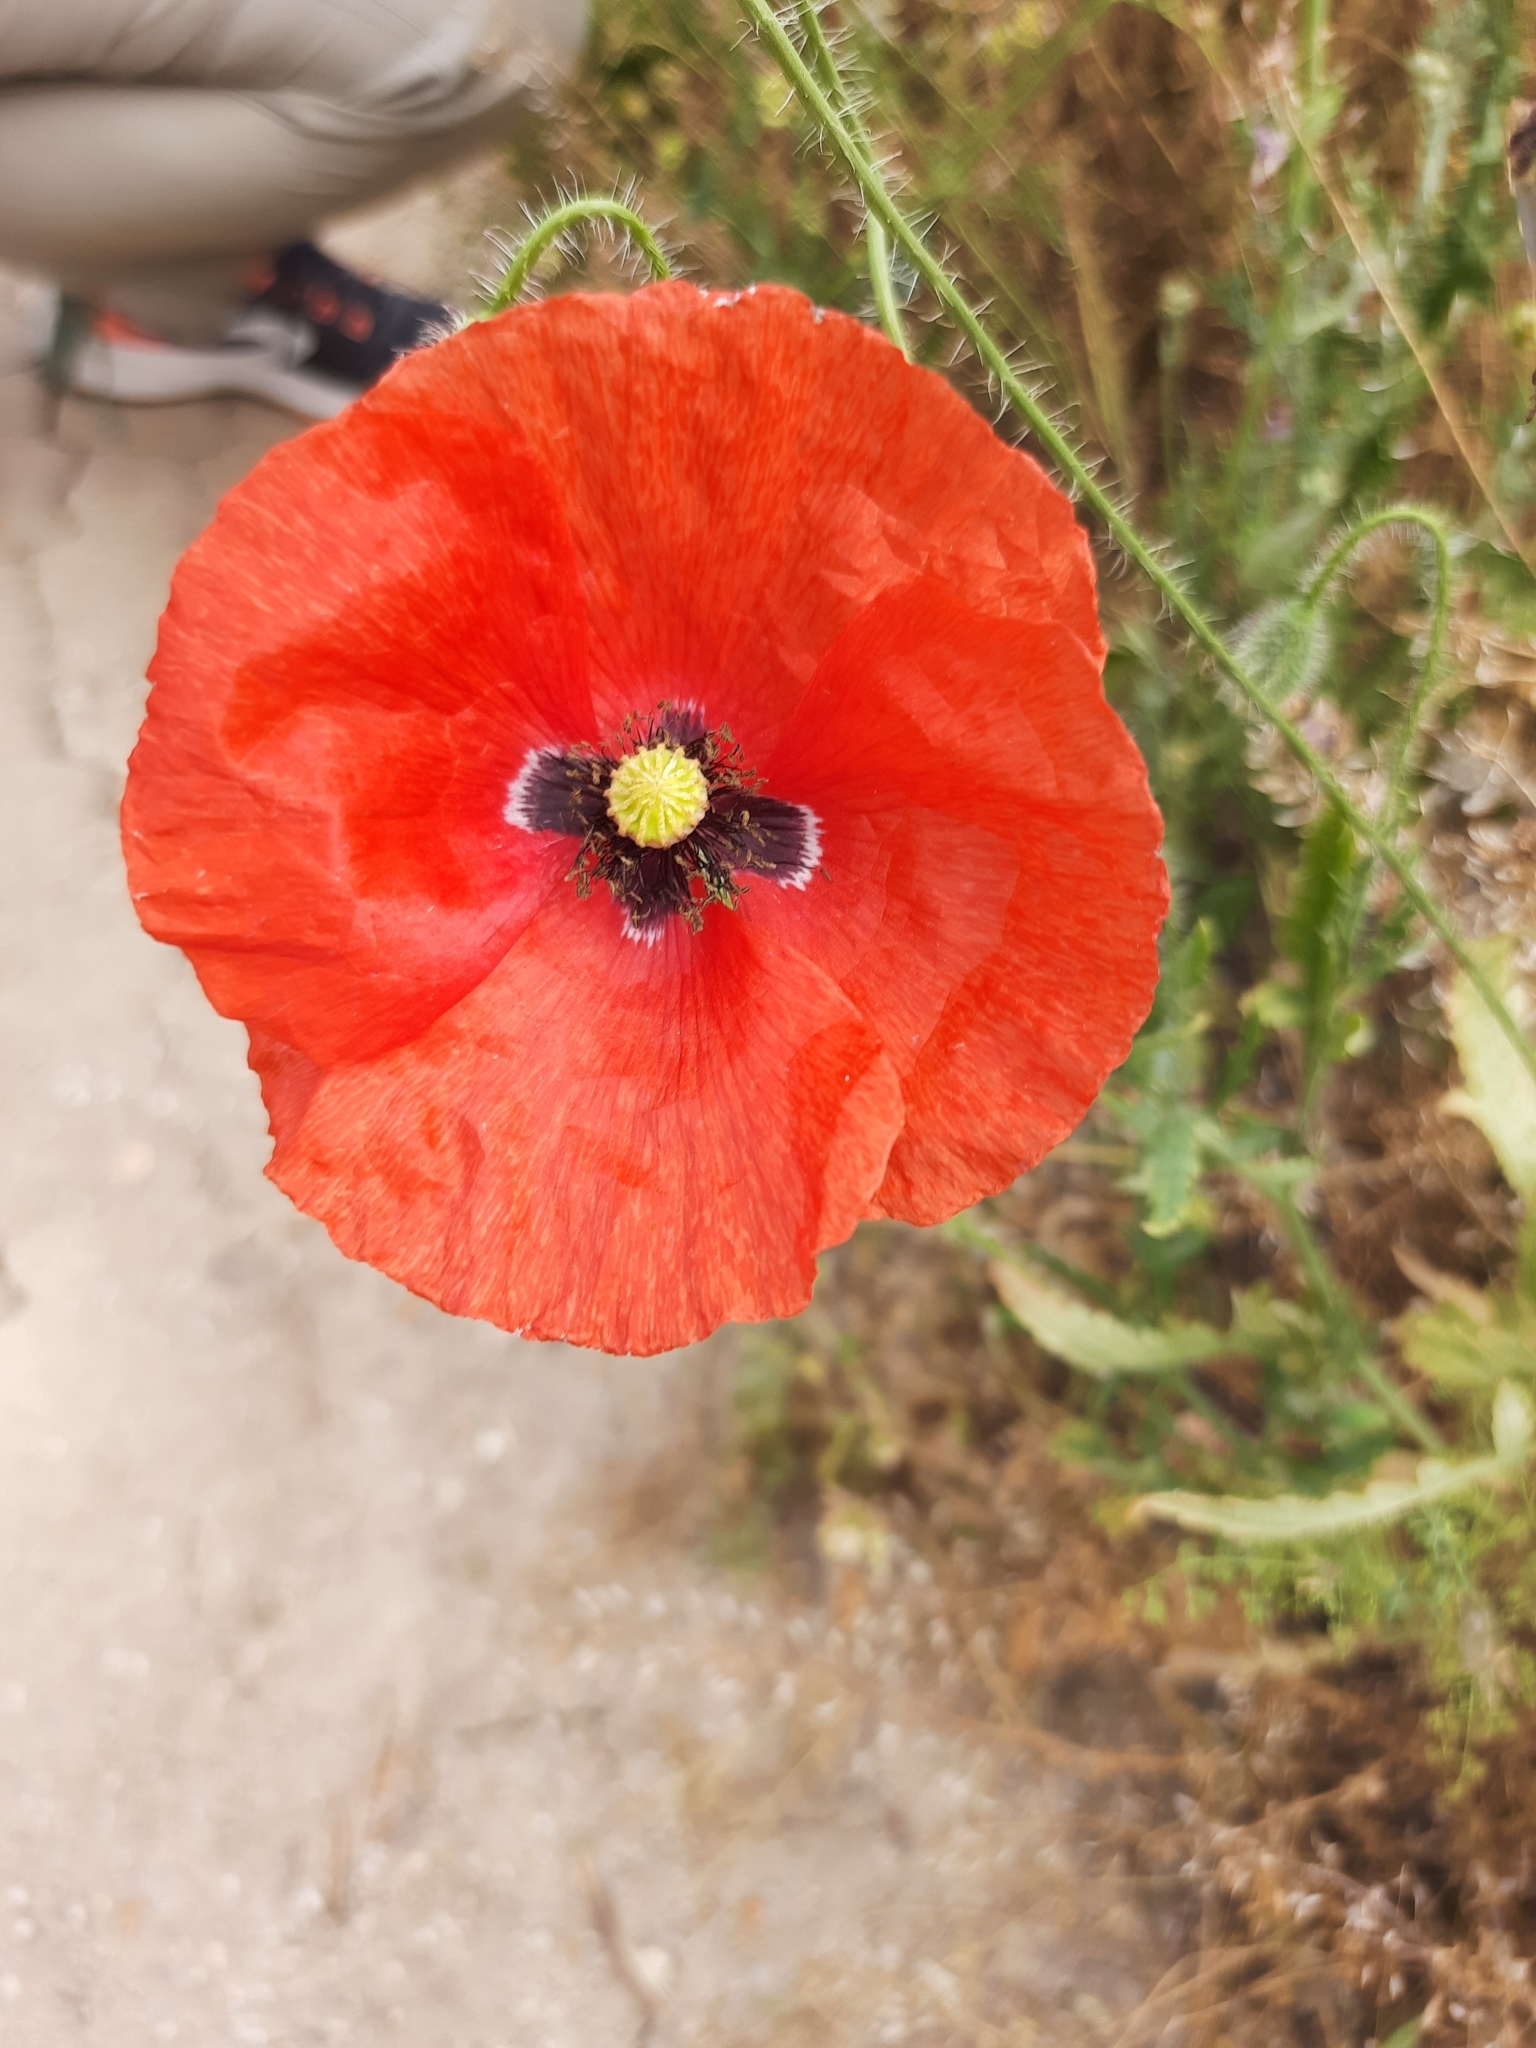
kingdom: Plantae
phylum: Tracheophyta
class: Magnoliopsida
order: Ranunculales
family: Papaveraceae
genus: Papaver
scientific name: Papaver rhoeas
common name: Corn poppy
